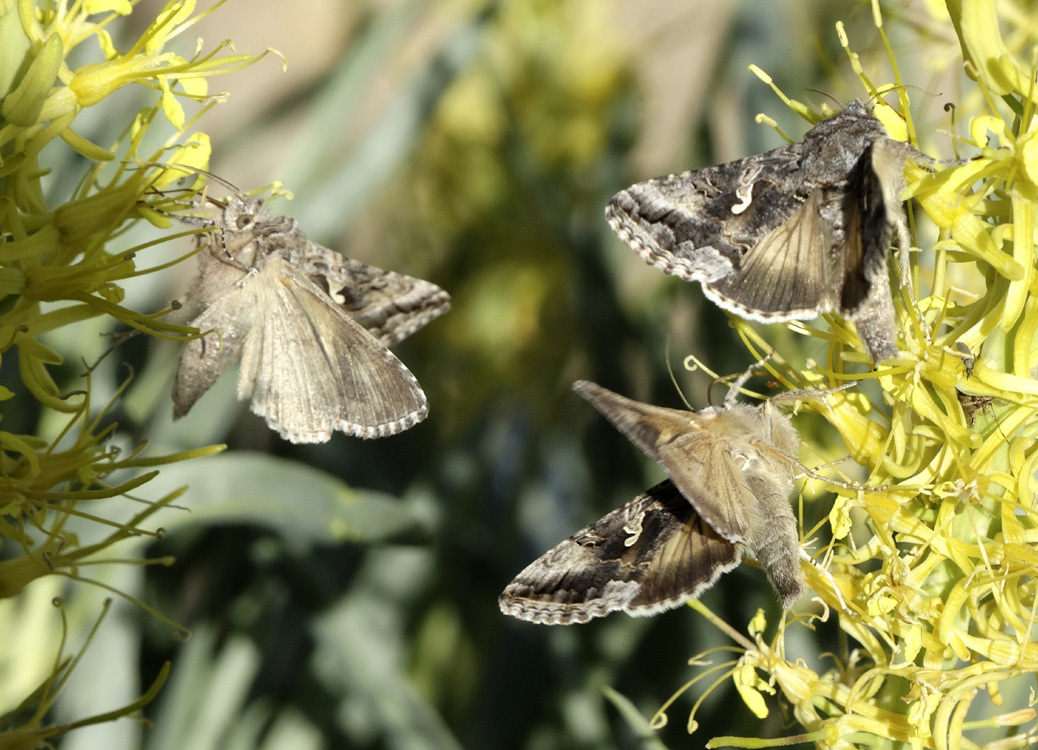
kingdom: Animalia
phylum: Arthropoda
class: Insecta
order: Lepidoptera
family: Noctuidae
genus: Autographa
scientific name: Autographa californica
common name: Alfalfa looper
